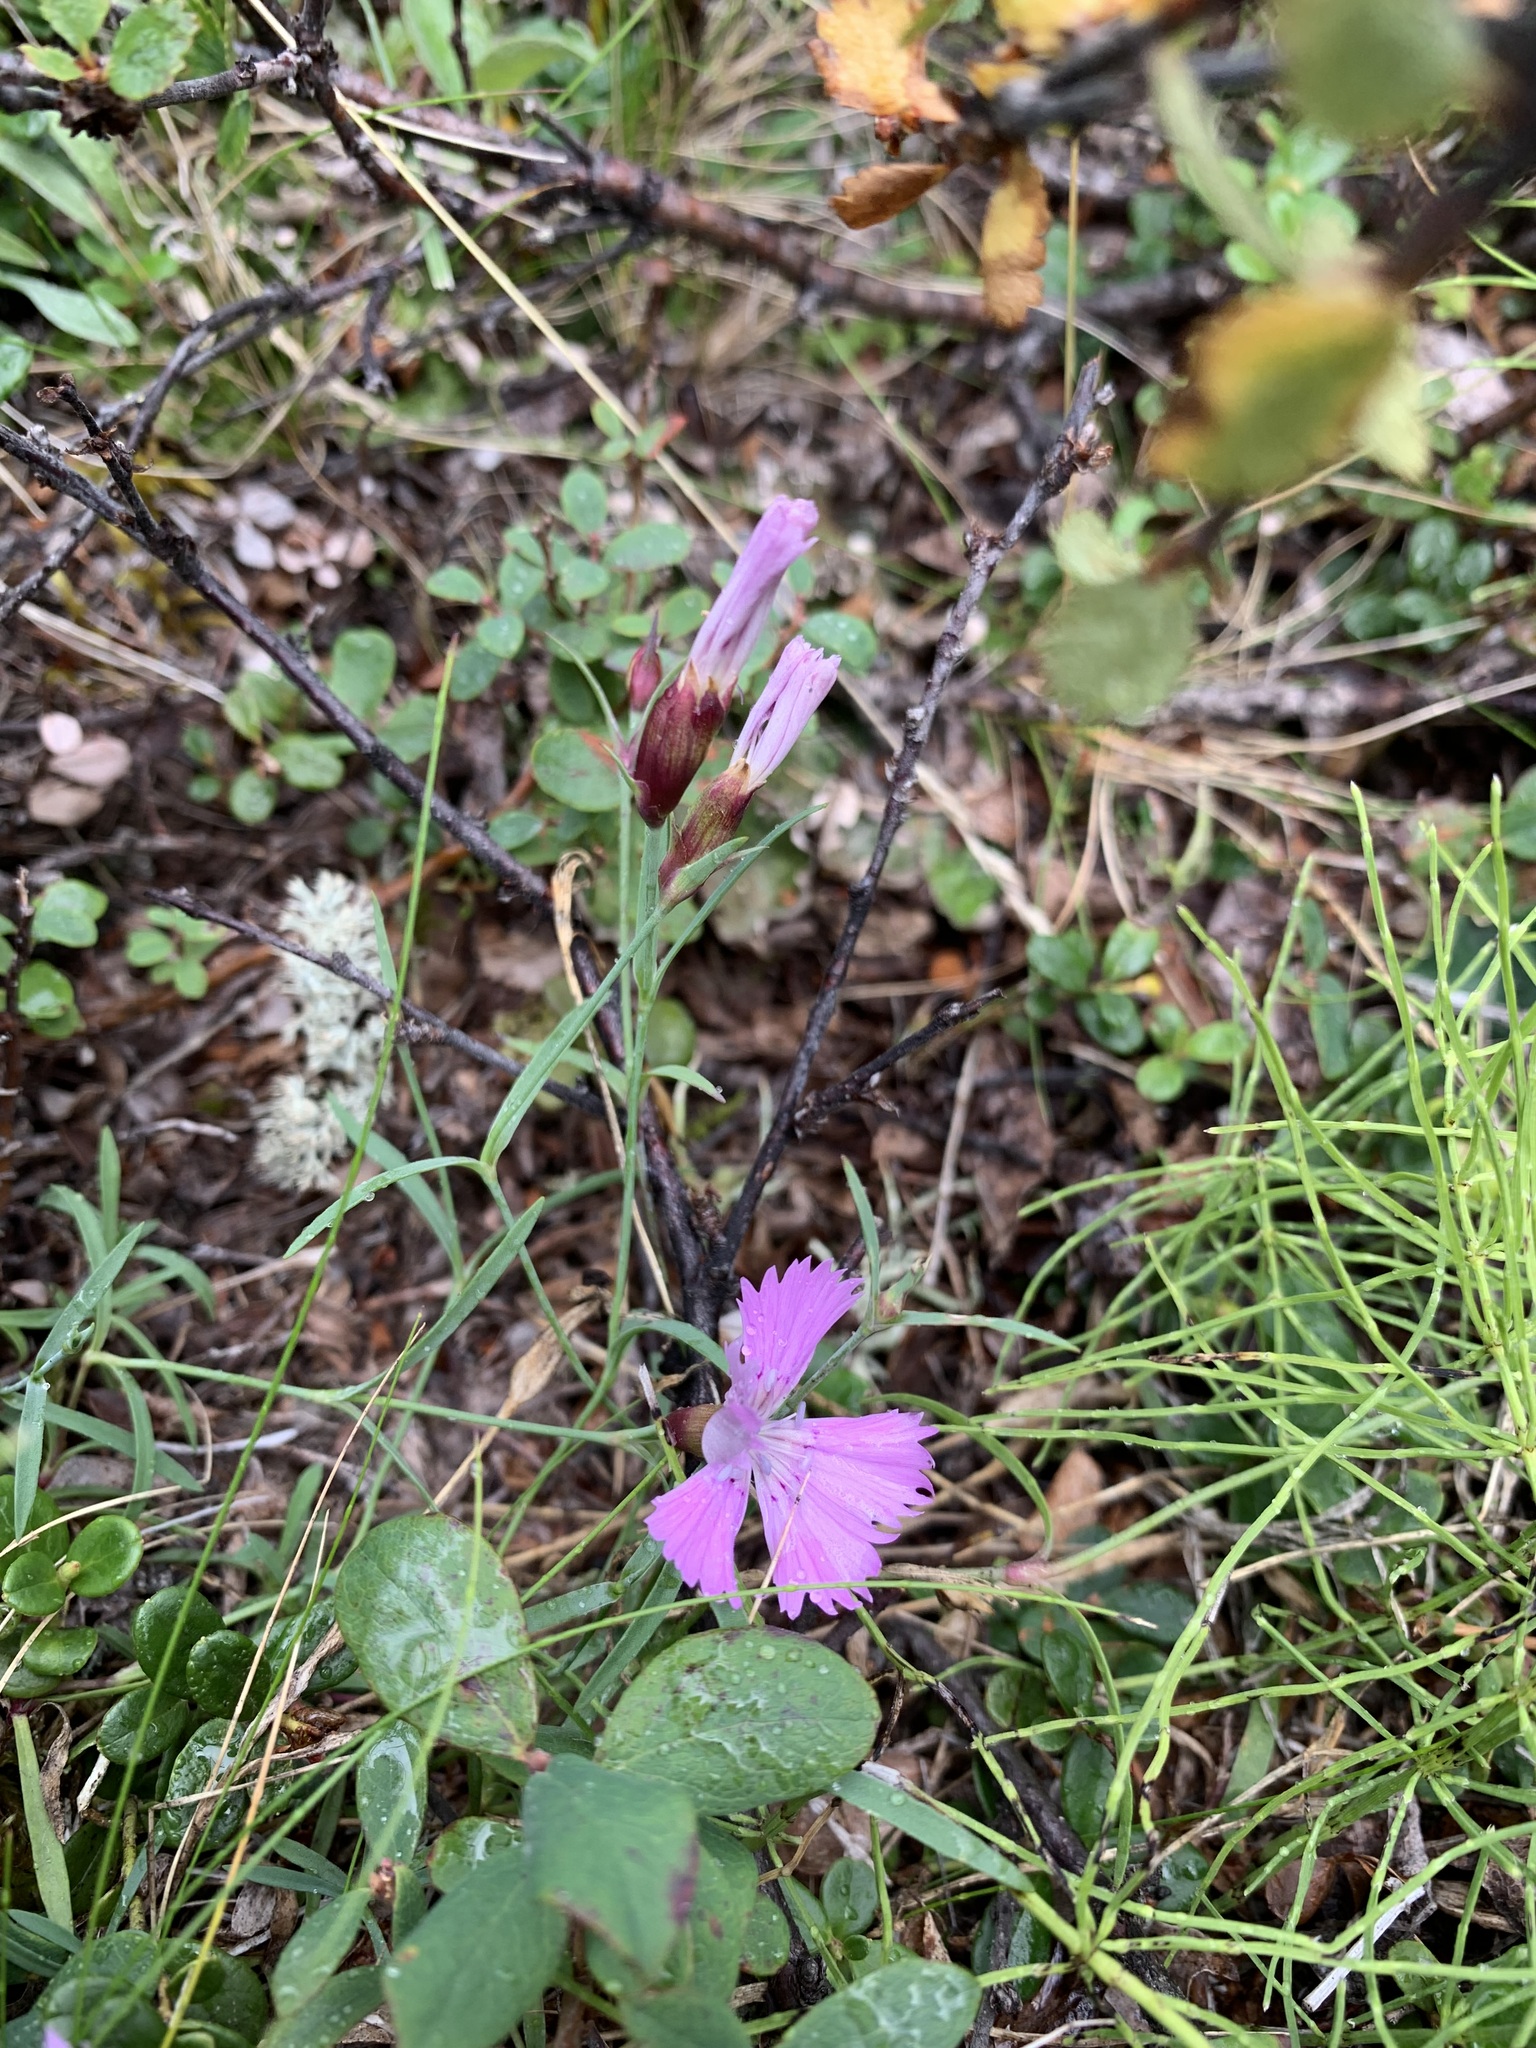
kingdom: Plantae
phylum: Tracheophyta
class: Magnoliopsida
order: Caryophyllales
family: Caryophyllaceae
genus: Dianthus
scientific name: Dianthus repens
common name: Northern pink
